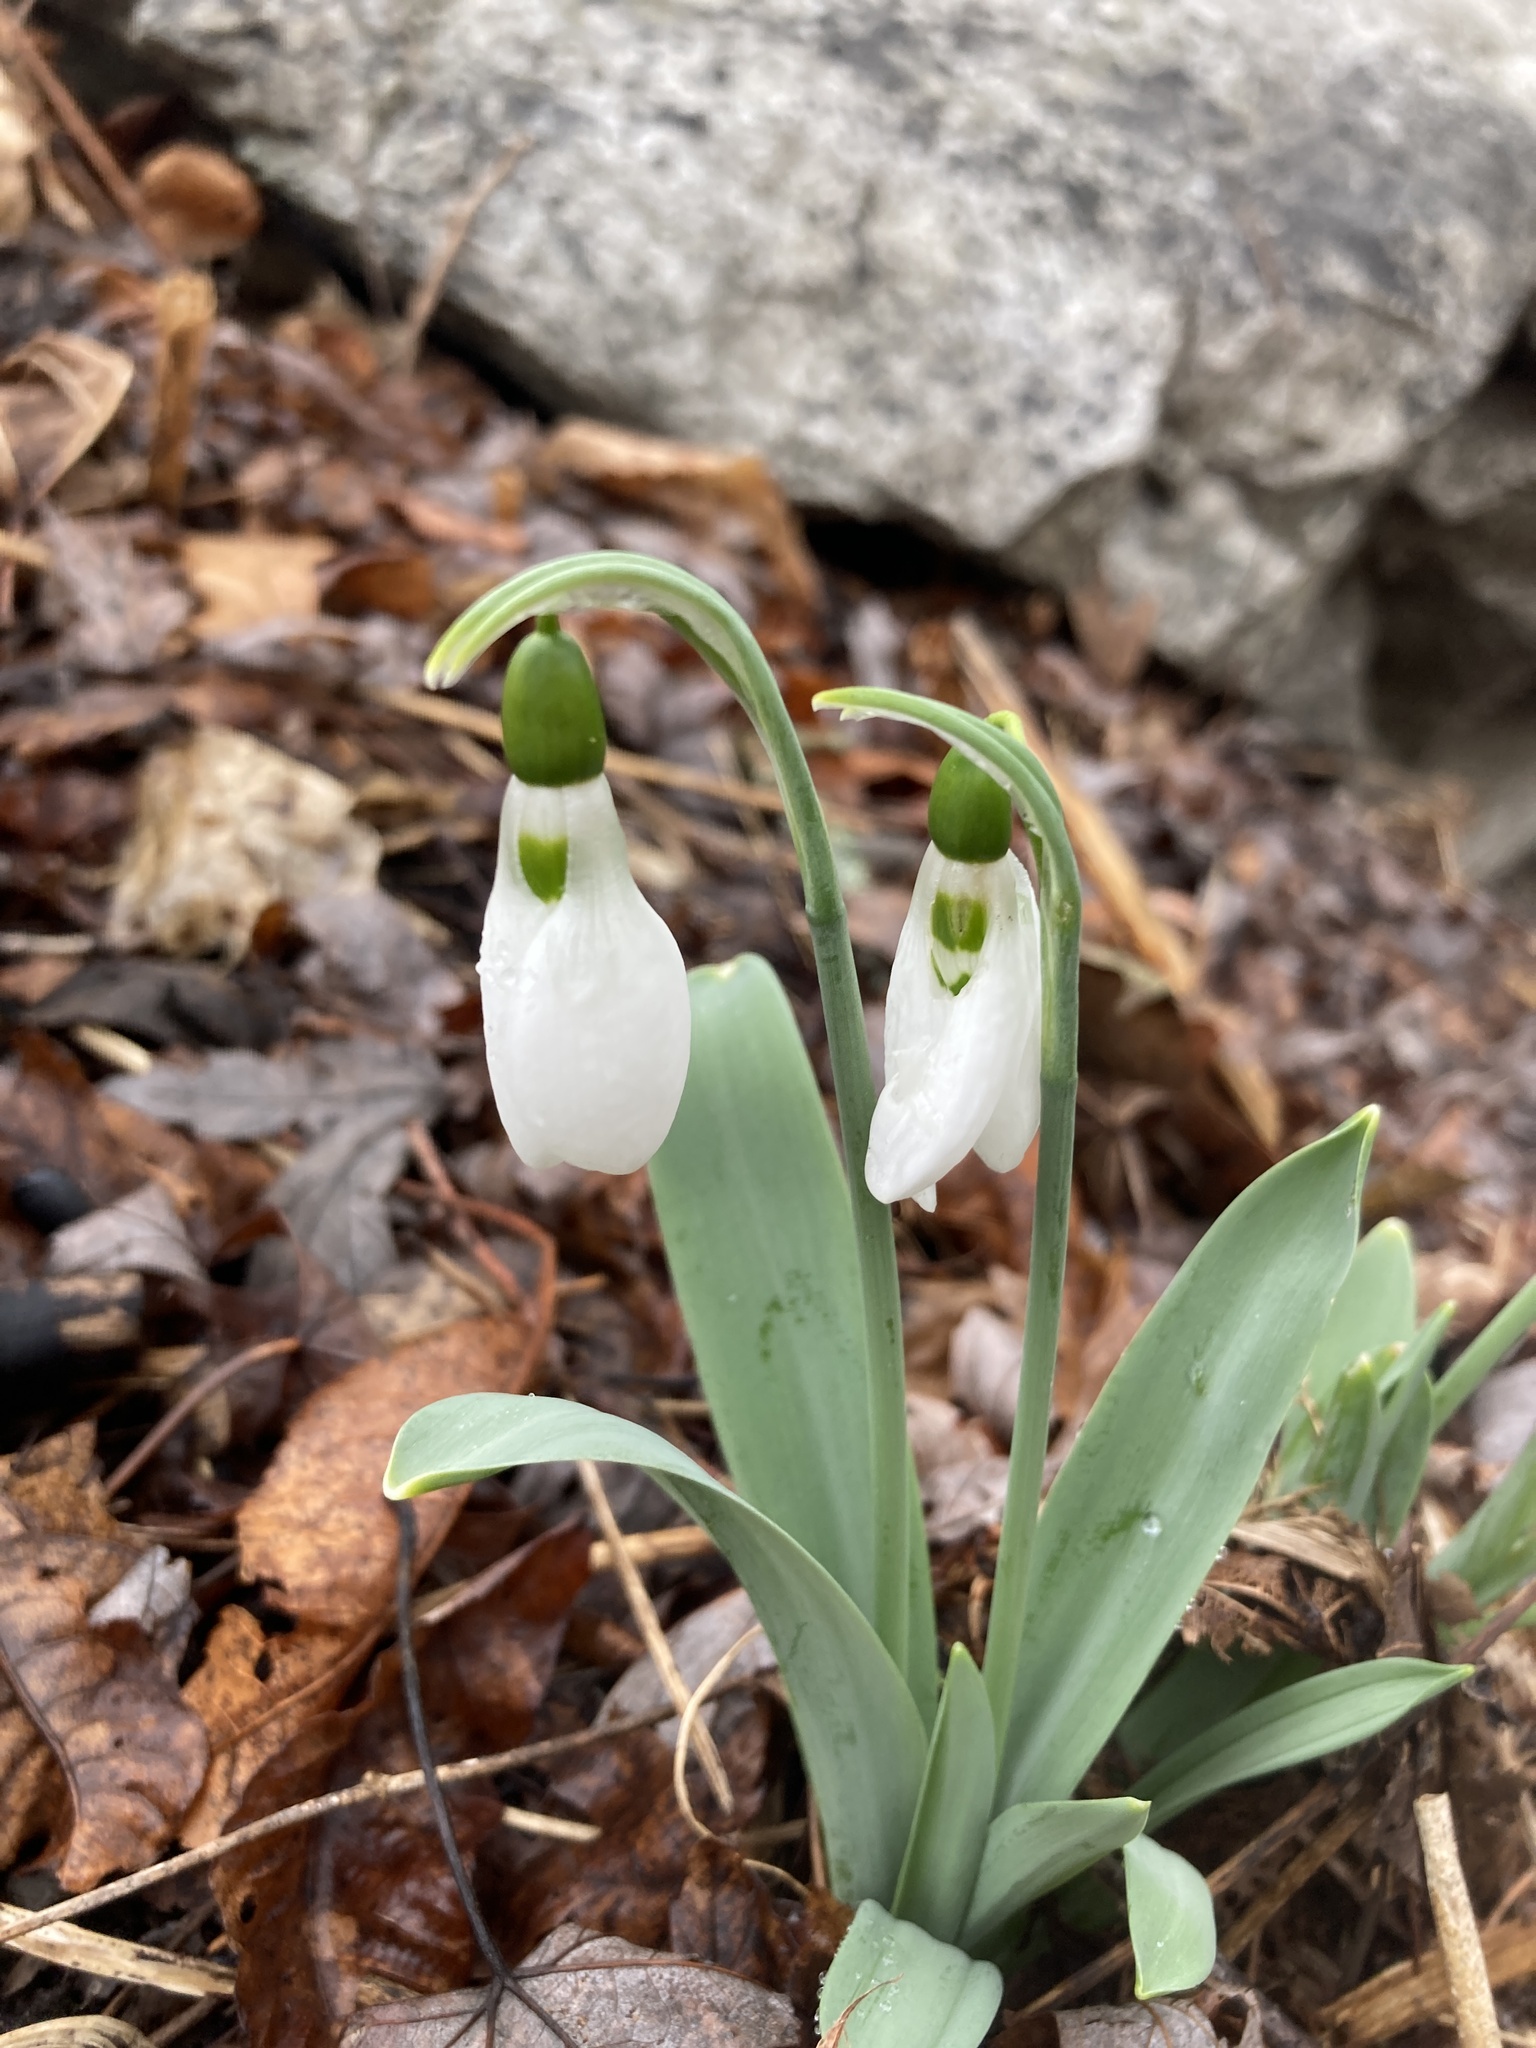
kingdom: Plantae
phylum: Tracheophyta
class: Liliopsida
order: Asparagales
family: Amaryllidaceae
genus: Galanthus
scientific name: Galanthus elwesii
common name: Greater snowdrop
